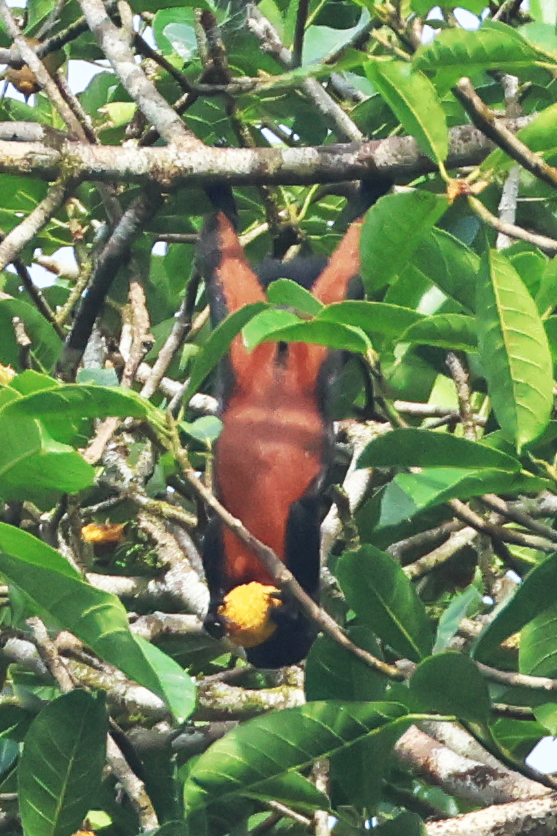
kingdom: Animalia
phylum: Chordata
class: Mammalia
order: Rodentia
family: Sciuridae
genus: Callosciurus
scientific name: Callosciurus prevostii
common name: Prevost's squirrel
